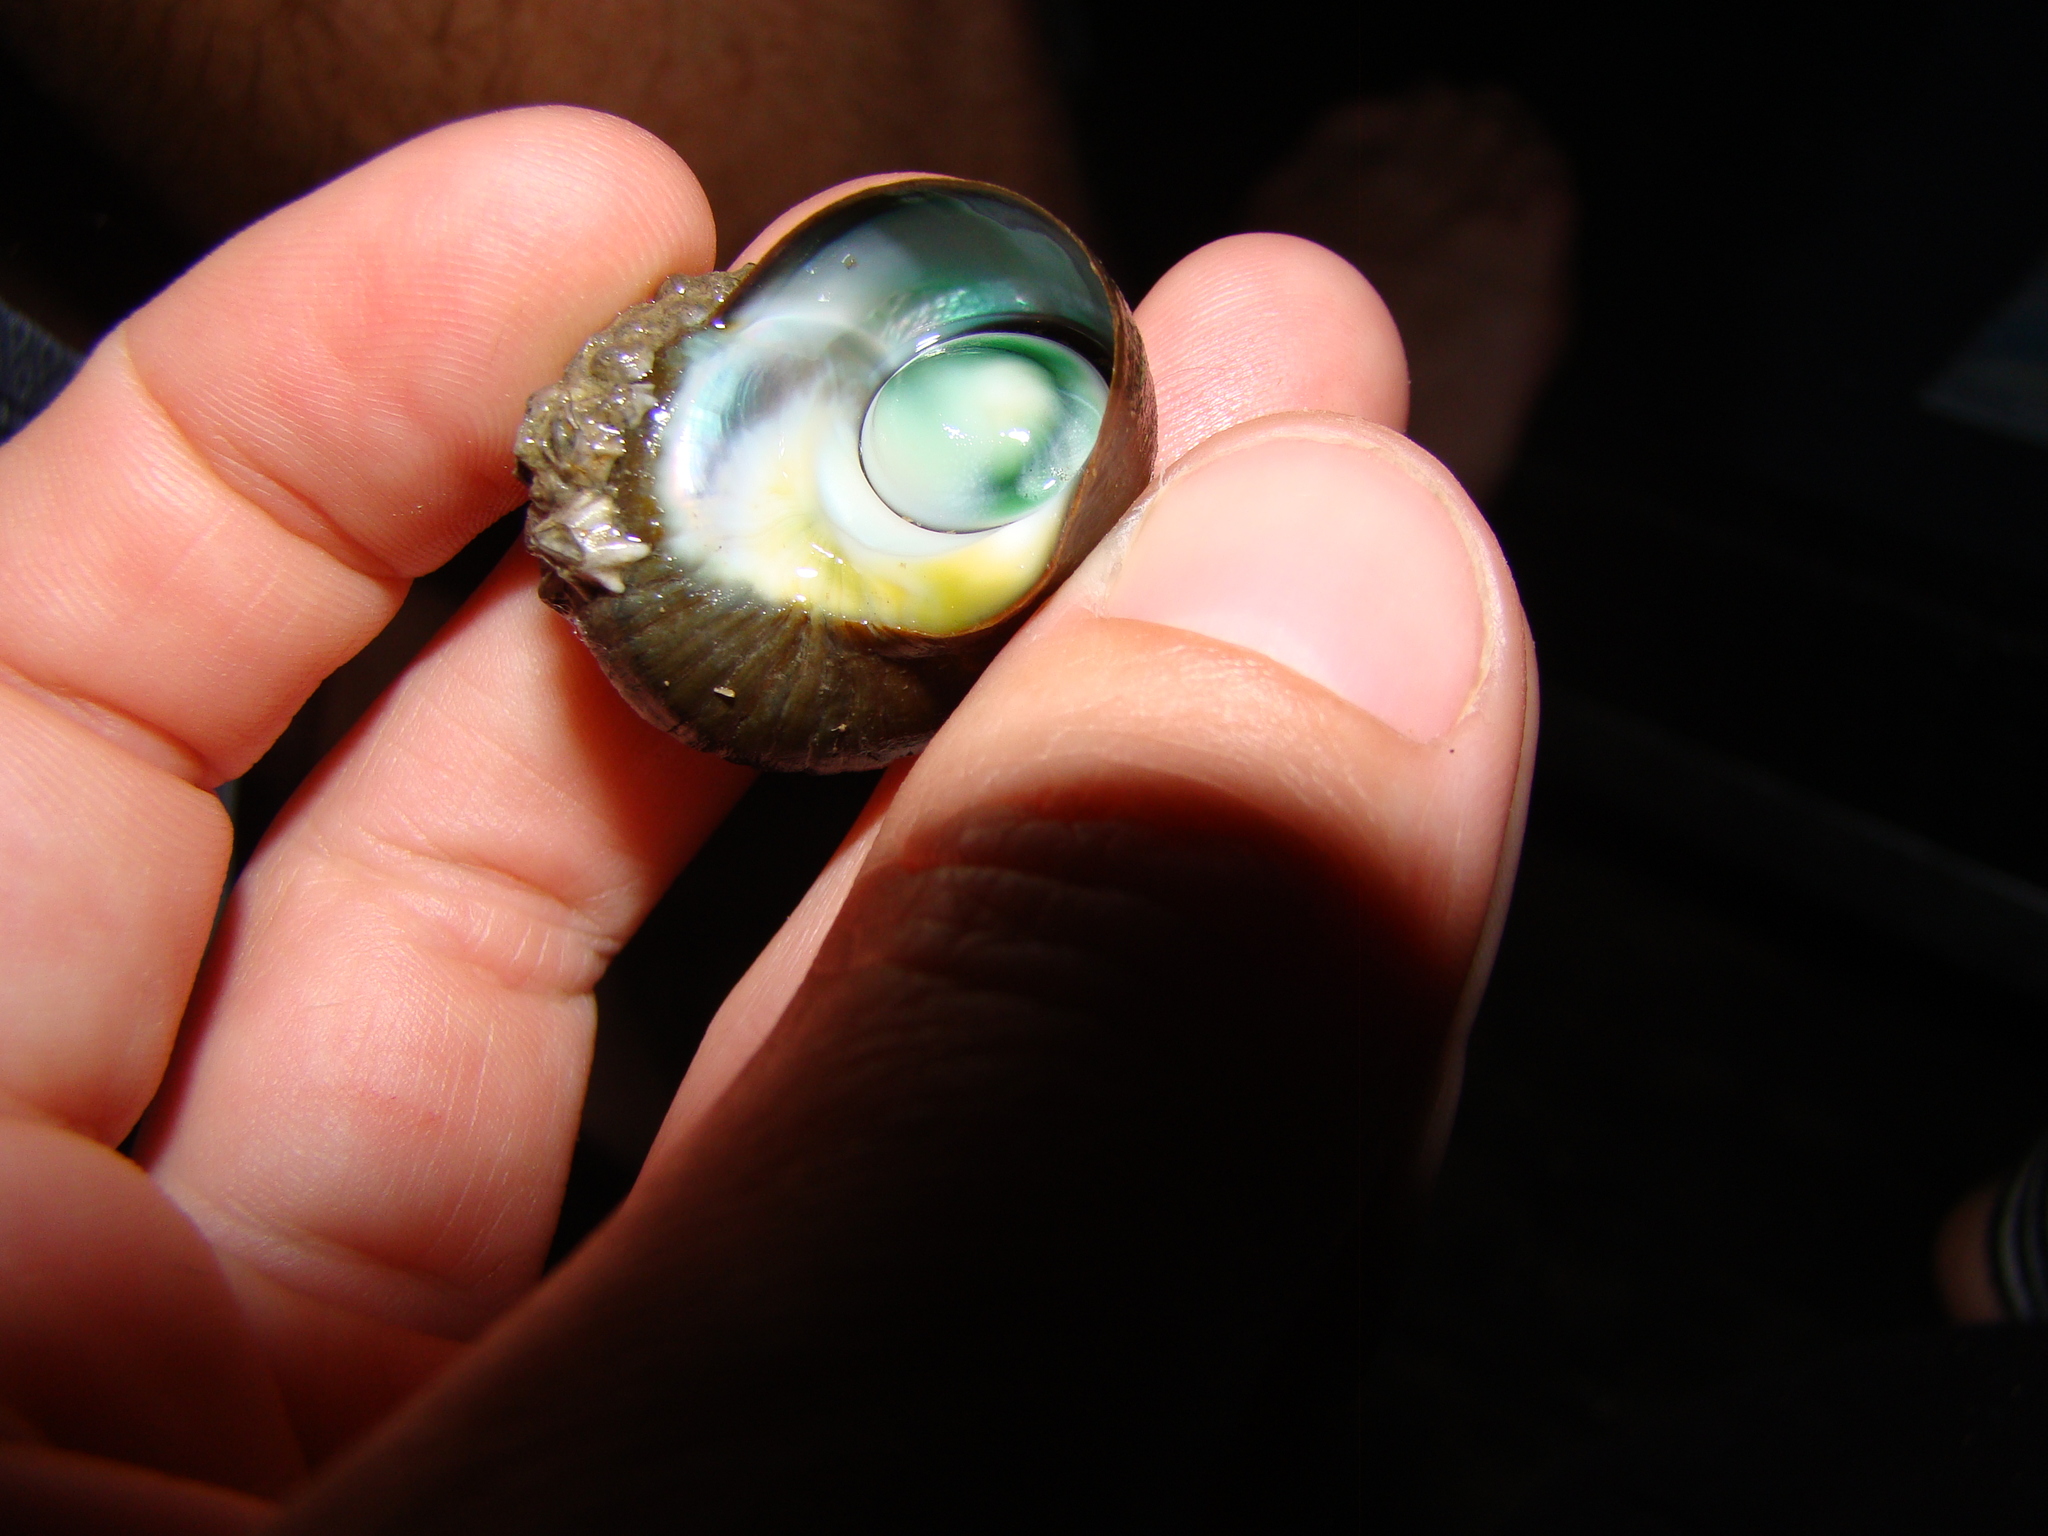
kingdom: Animalia
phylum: Mollusca
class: Gastropoda
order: Trochida
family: Turbinidae
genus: Lunella
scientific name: Lunella smaragda
